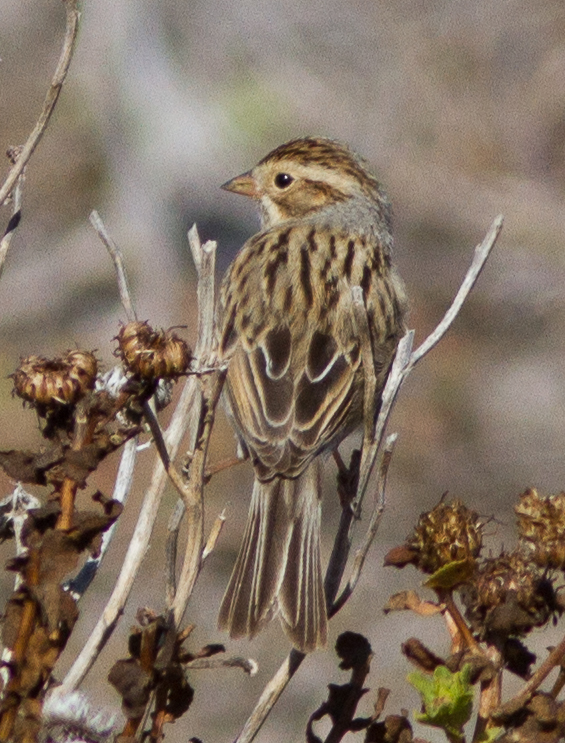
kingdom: Animalia
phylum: Chordata
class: Aves
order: Passeriformes
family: Passerellidae
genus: Spizella
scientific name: Spizella pallida
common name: Clay-colored sparrow
